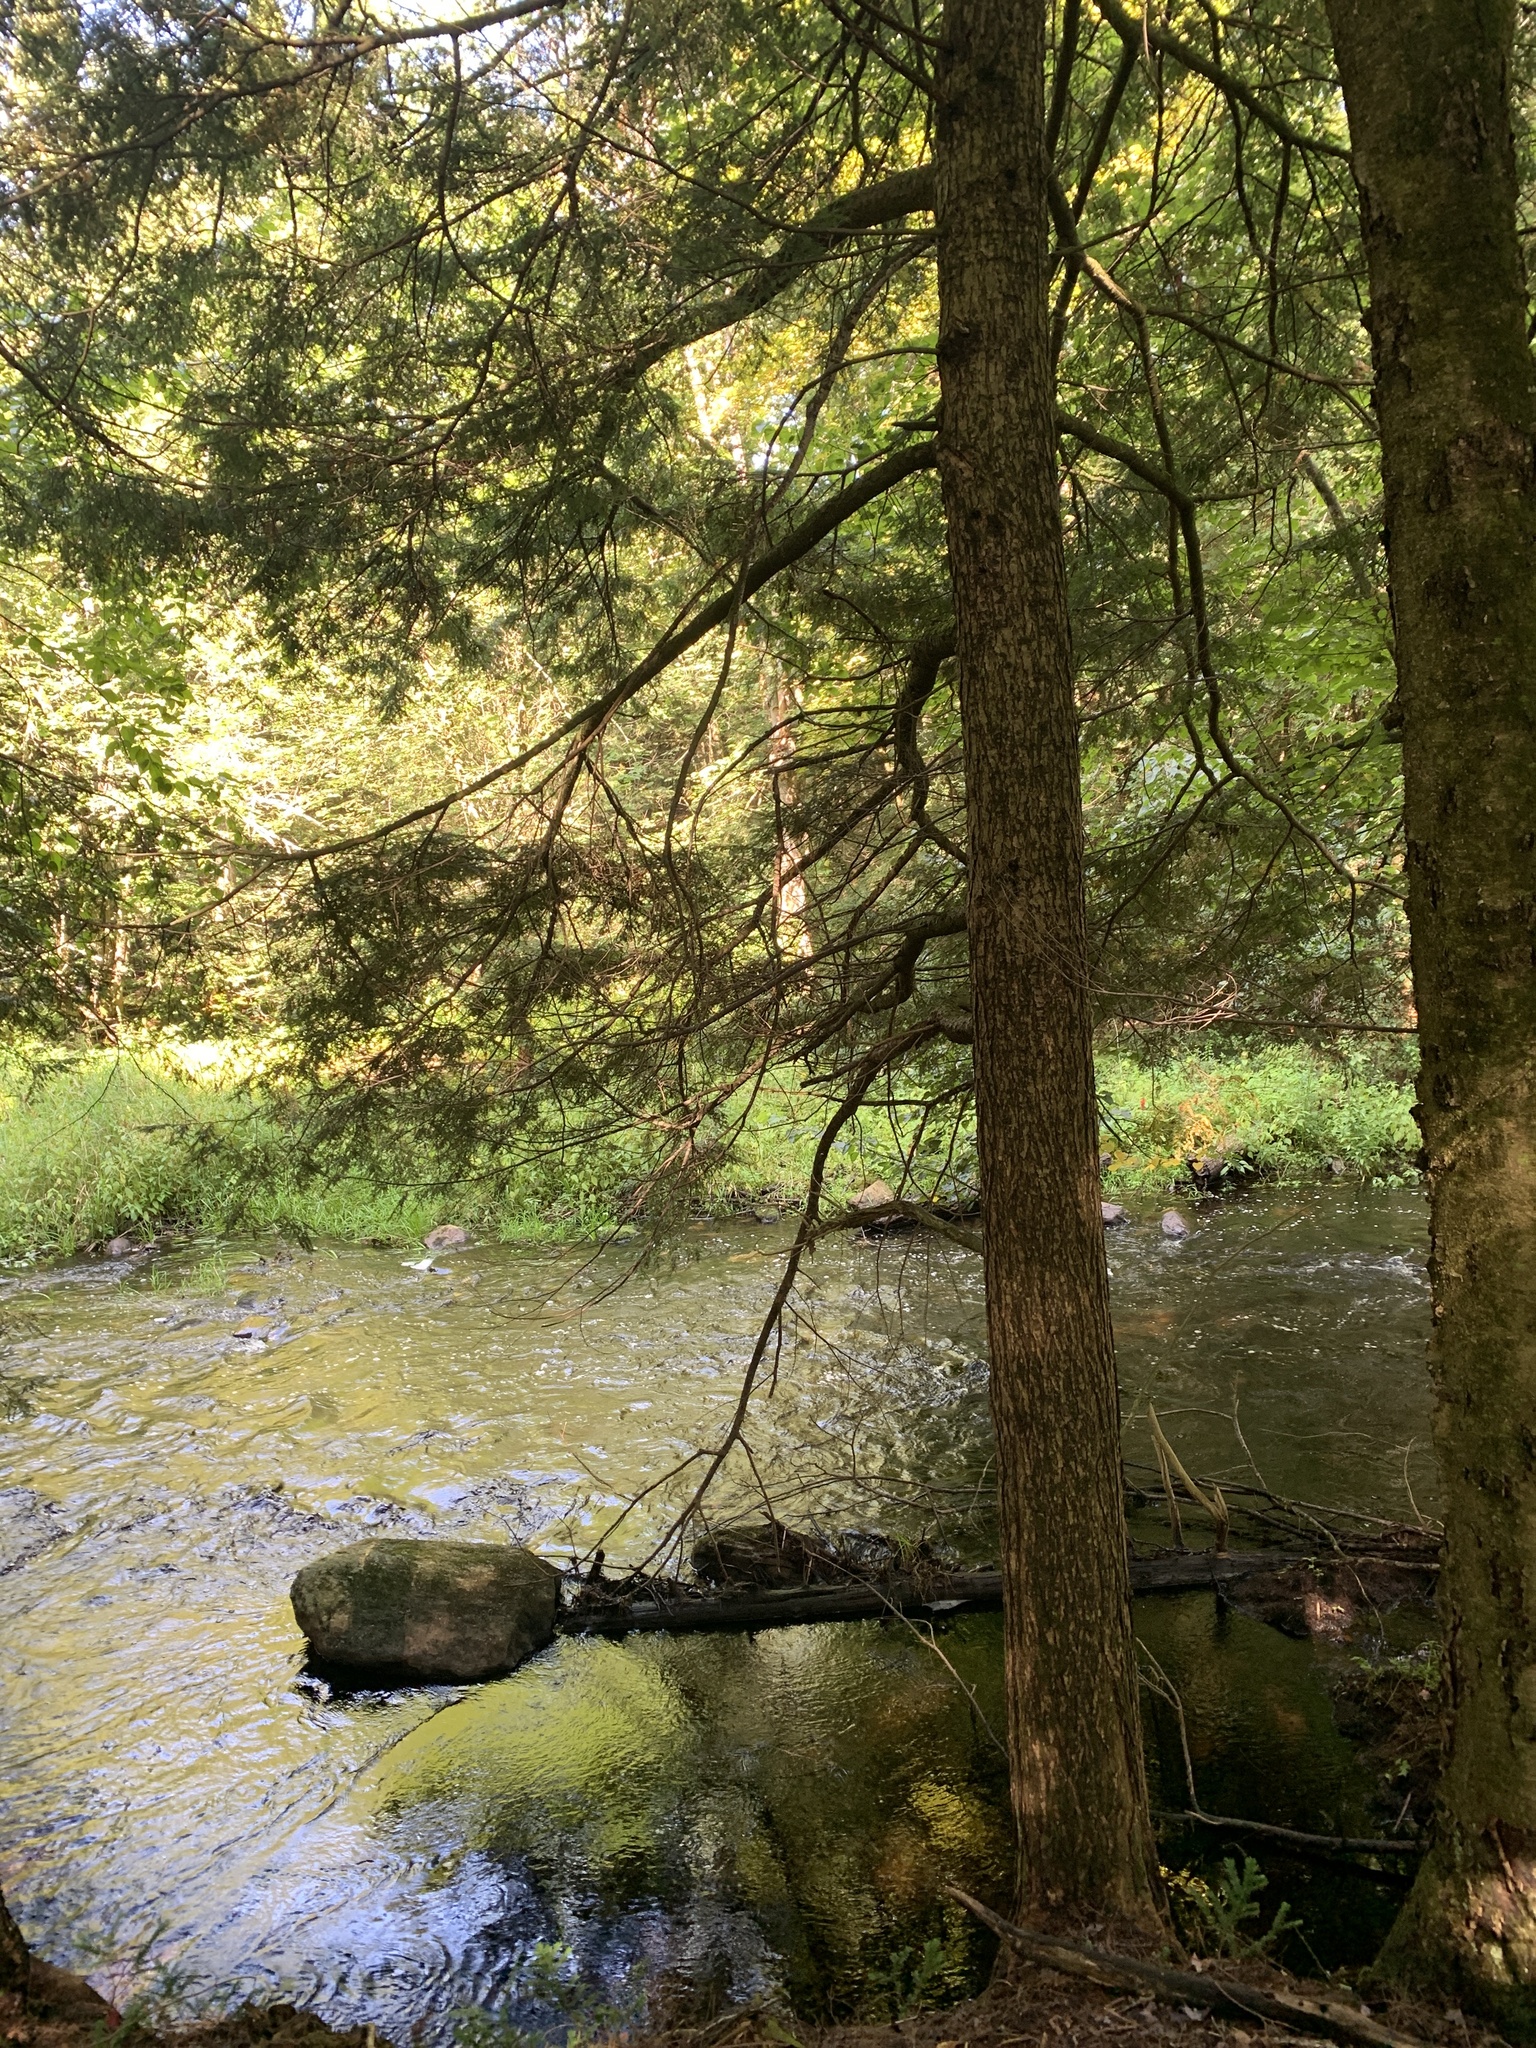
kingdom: Plantae
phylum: Tracheophyta
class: Pinopsida
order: Pinales
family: Pinaceae
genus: Tsuga
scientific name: Tsuga canadensis
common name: Eastern hemlock
